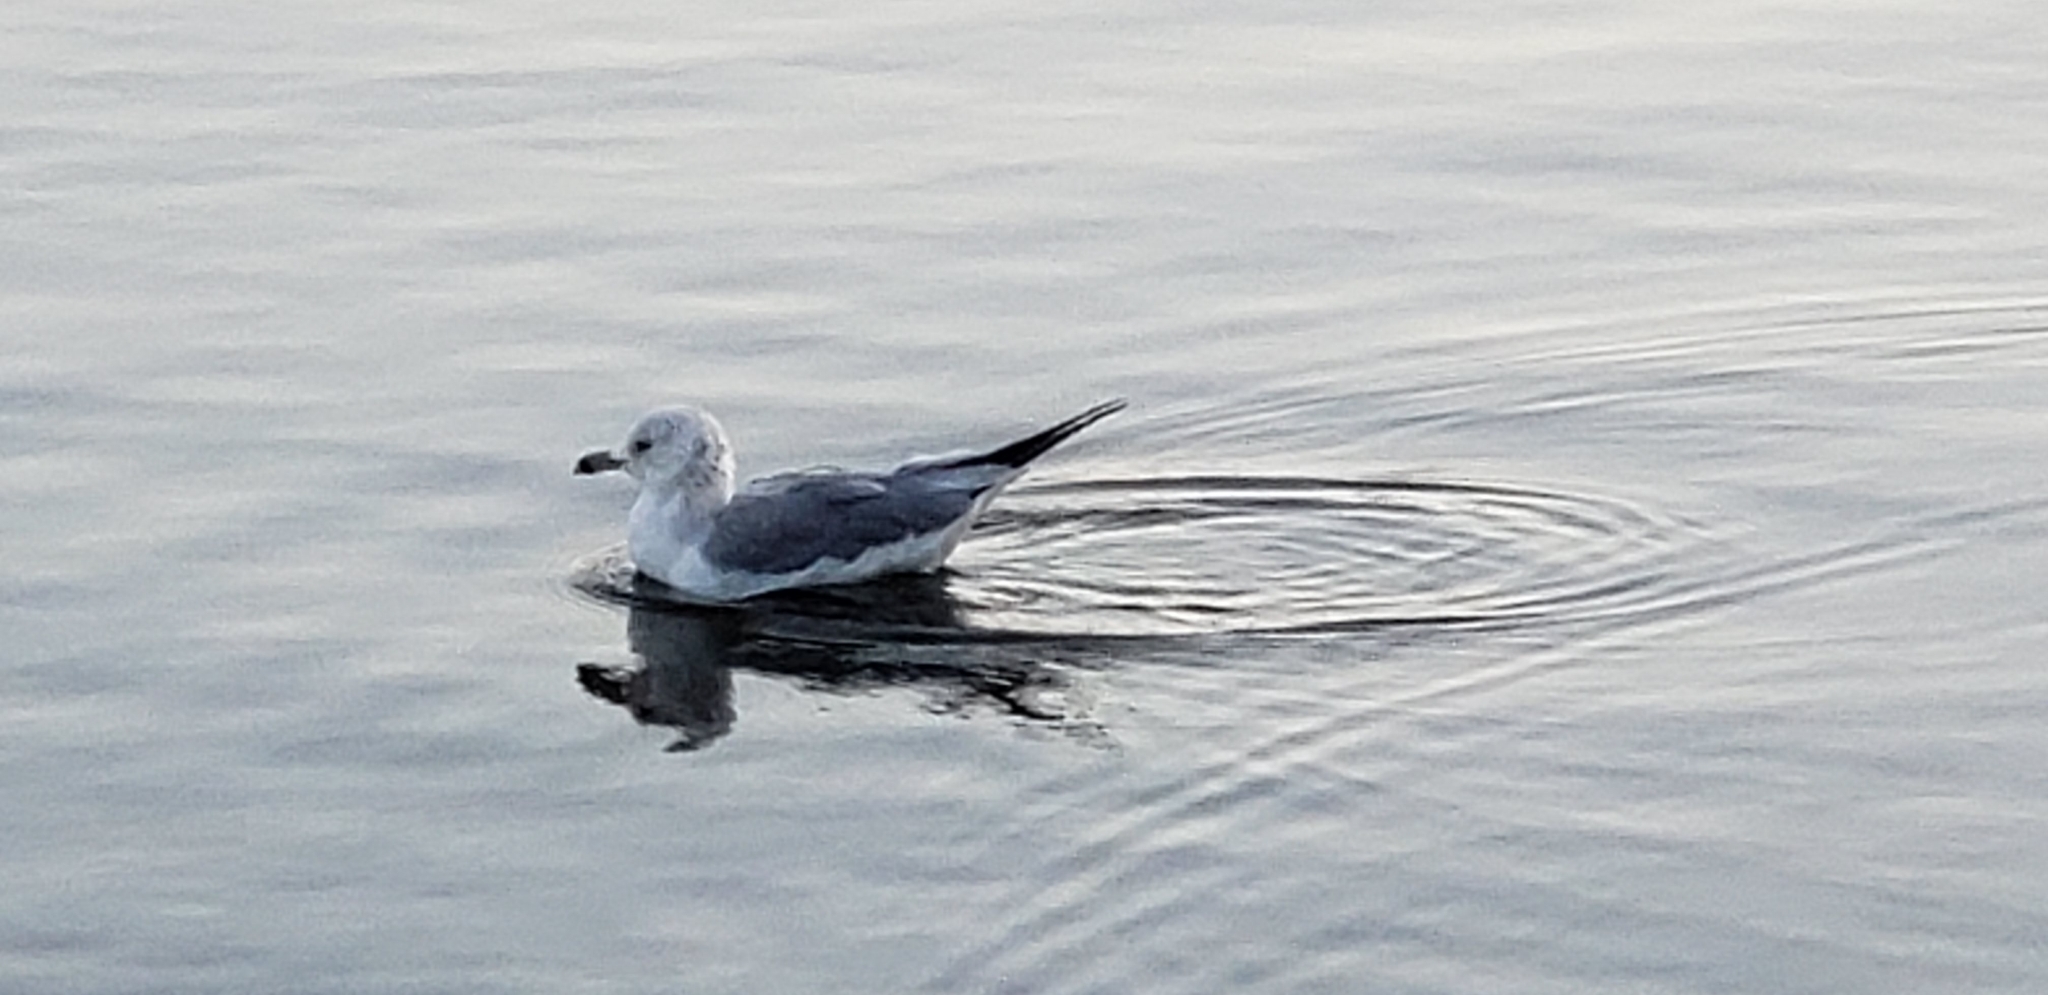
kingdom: Animalia
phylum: Chordata
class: Aves
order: Charadriiformes
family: Laridae
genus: Larus
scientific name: Larus delawarensis
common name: Ring-billed gull
